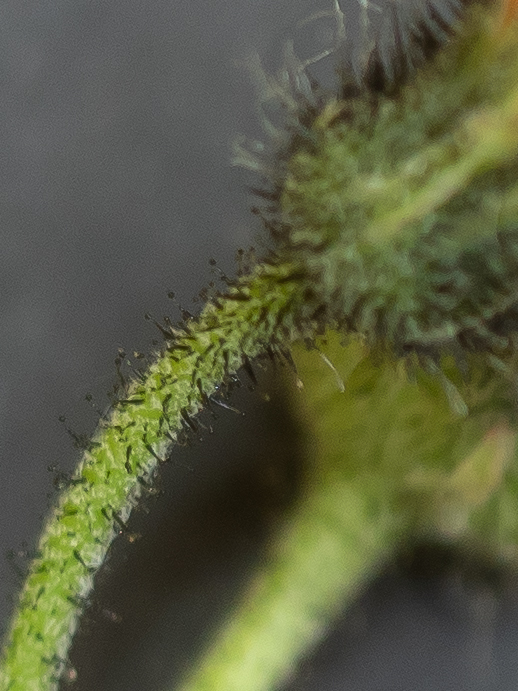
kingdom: Plantae
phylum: Tracheophyta
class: Magnoliopsida
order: Asterales
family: Asteraceae
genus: Pilosella
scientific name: Pilosella aurantiaca
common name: Fox-and-cubs
